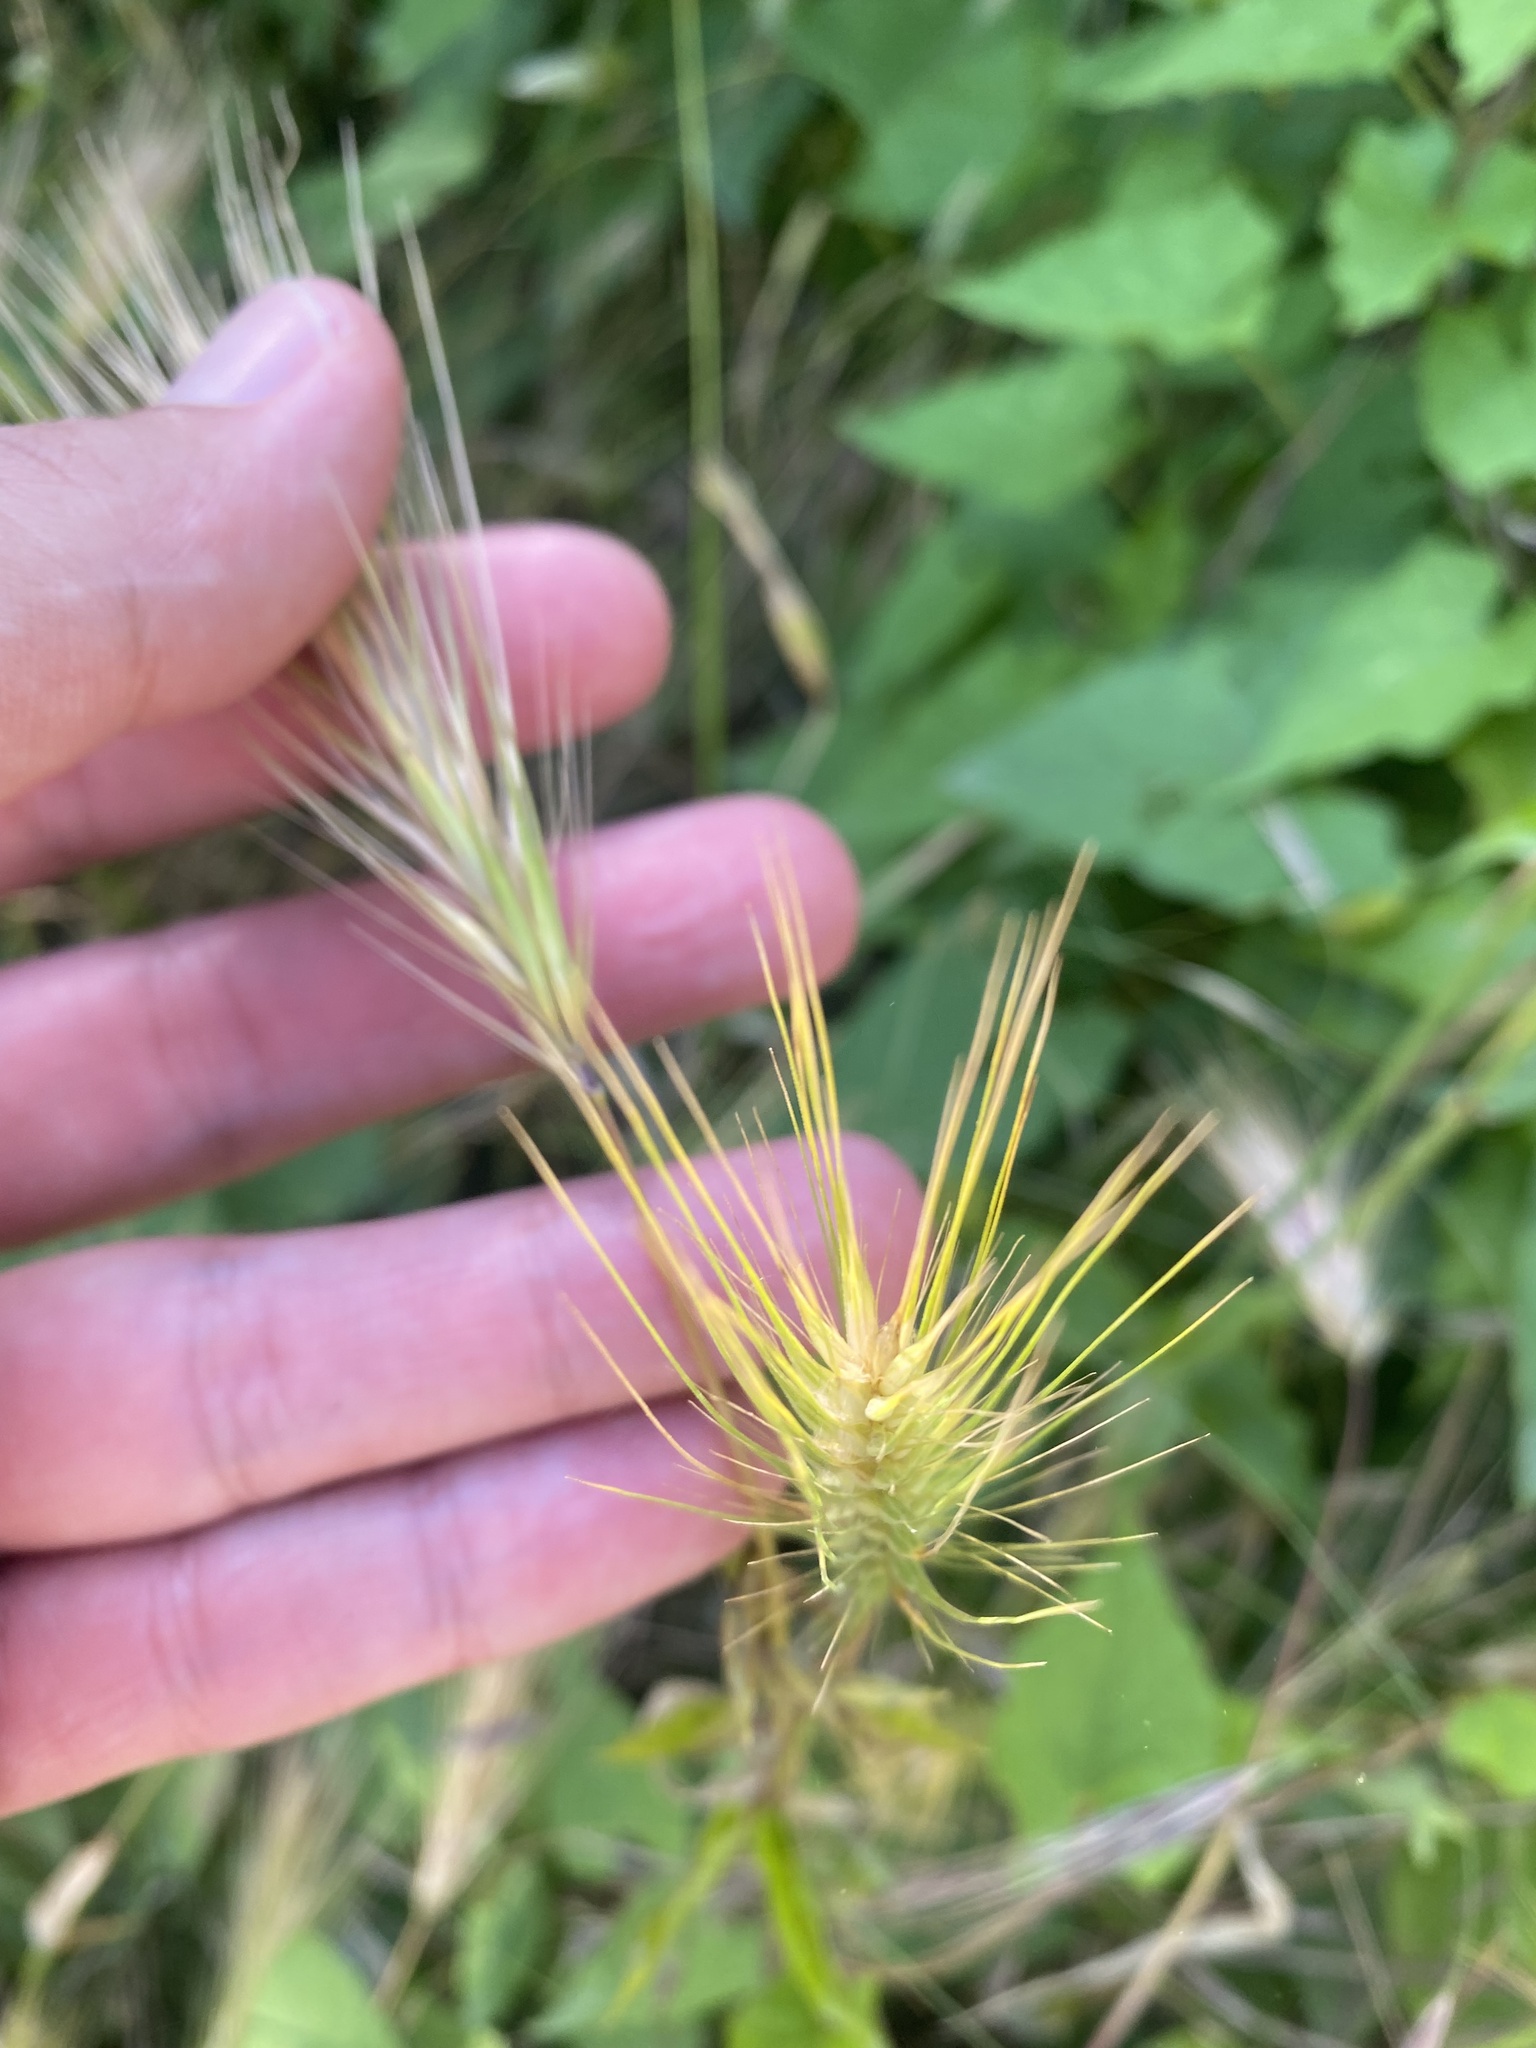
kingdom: Plantae
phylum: Tracheophyta
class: Liliopsida
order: Poales
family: Poaceae
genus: Hordeum
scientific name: Hordeum murinum
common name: Wall barley
